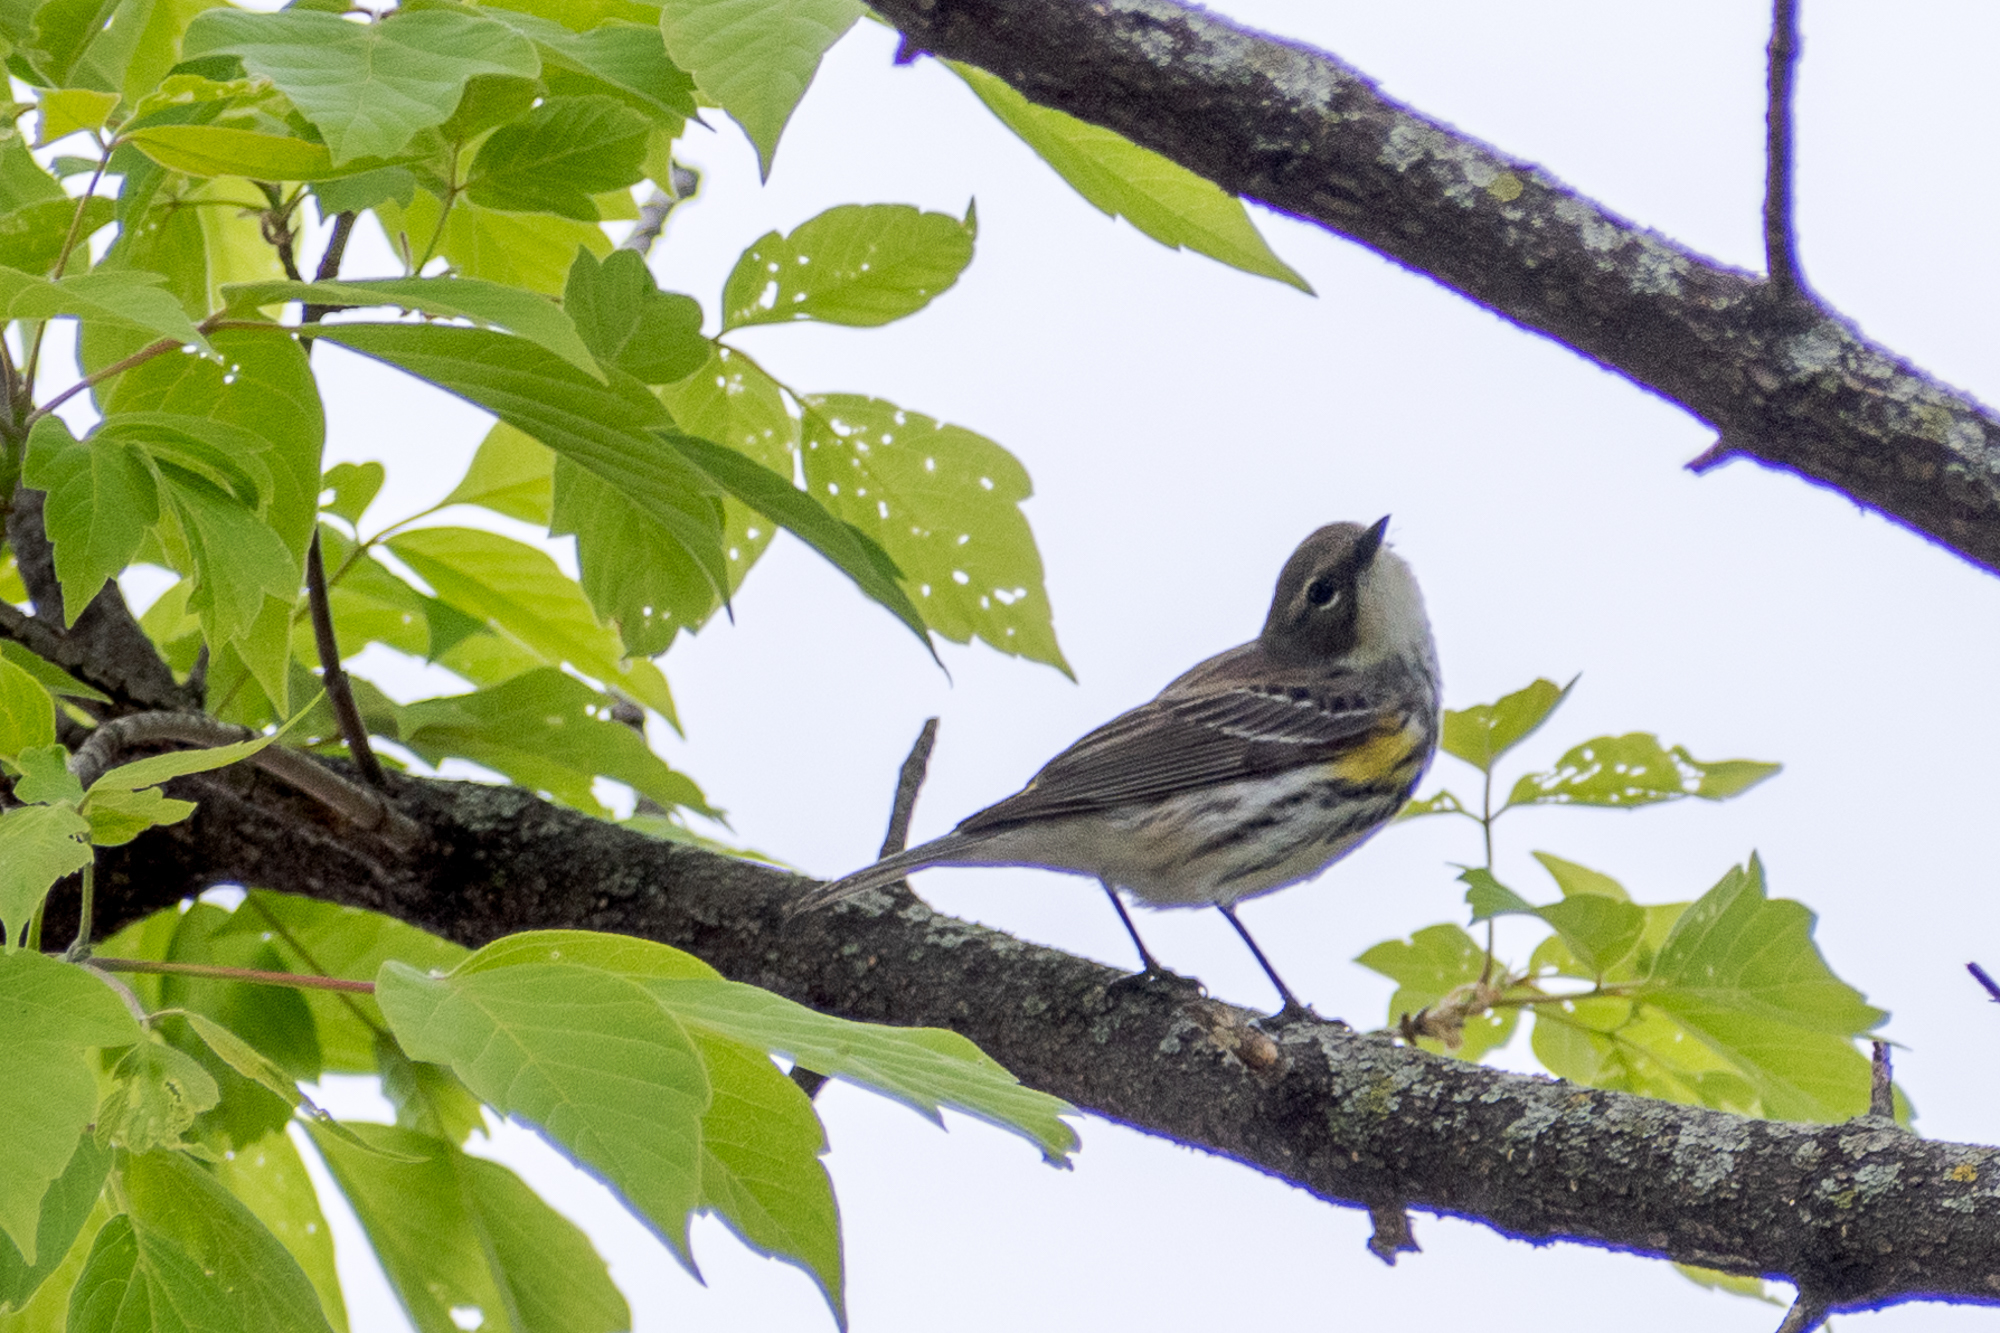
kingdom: Animalia
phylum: Chordata
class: Aves
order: Passeriformes
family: Parulidae
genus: Setophaga
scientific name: Setophaga coronata
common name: Myrtle warbler
